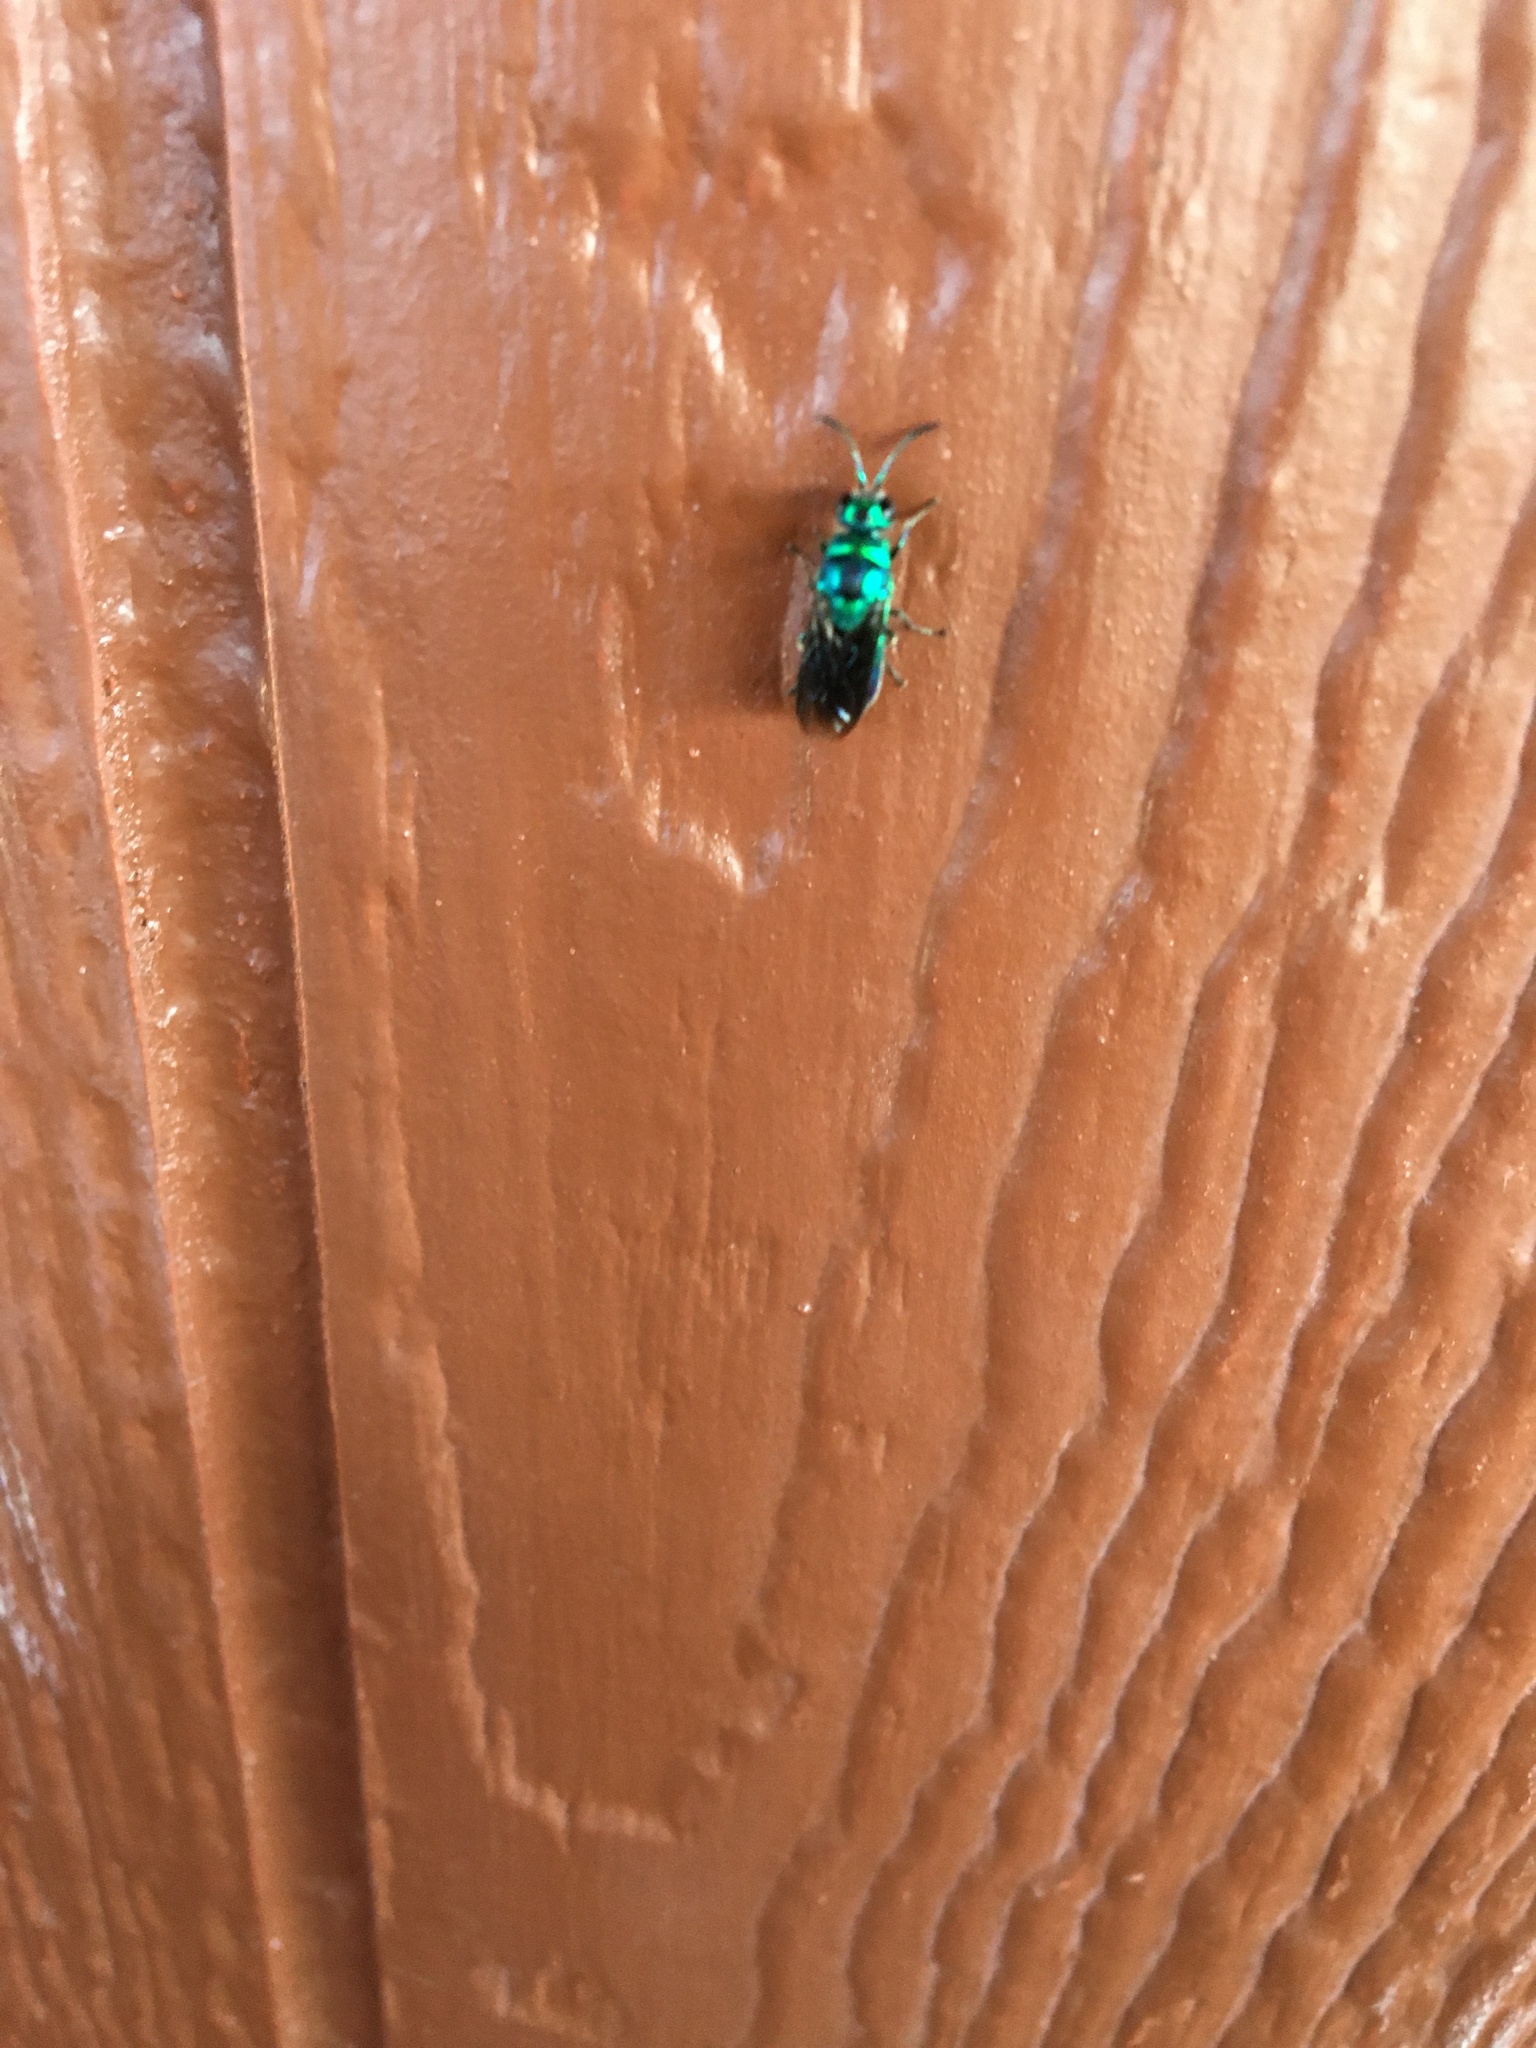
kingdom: Animalia
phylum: Arthropoda
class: Insecta
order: Hymenoptera
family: Chrysididae
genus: Chrysis
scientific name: Chrysis angolensis
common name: Cuckoo wasp
